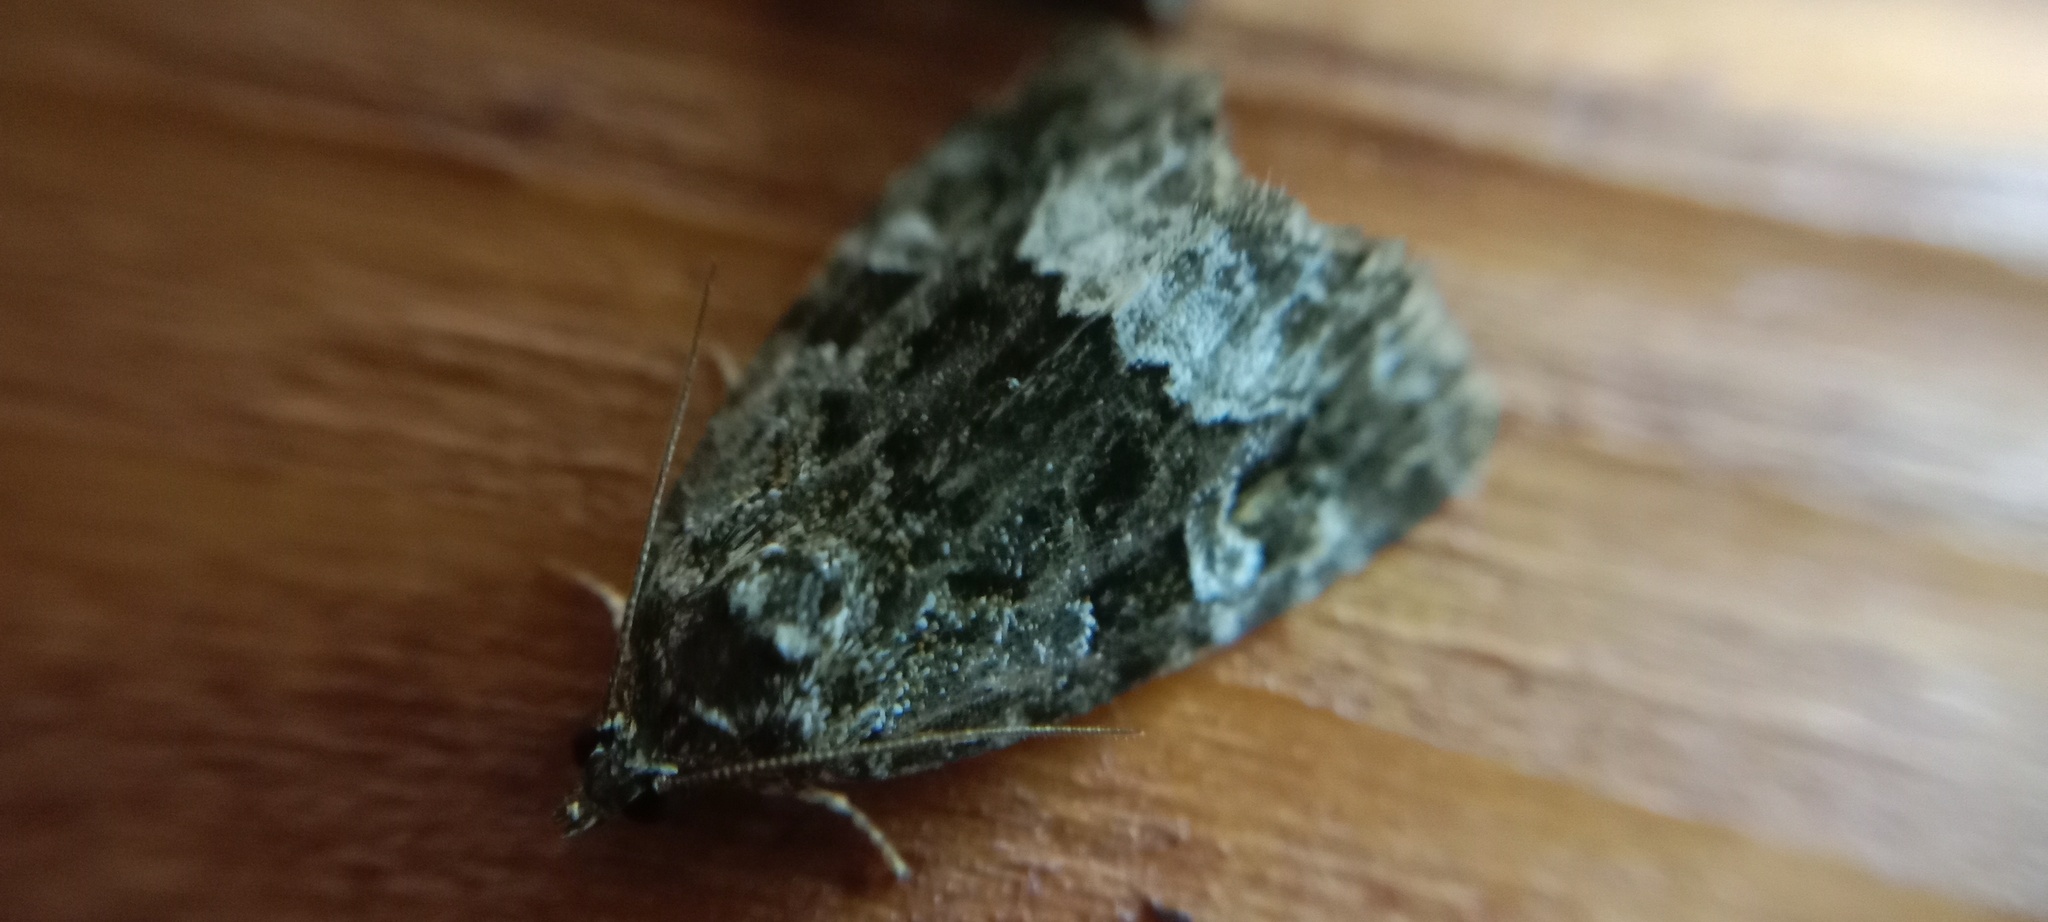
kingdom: Animalia
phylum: Arthropoda
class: Insecta
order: Lepidoptera
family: Noctuidae
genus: Deltote
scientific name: Deltote pygarga
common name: Marbled white spot
